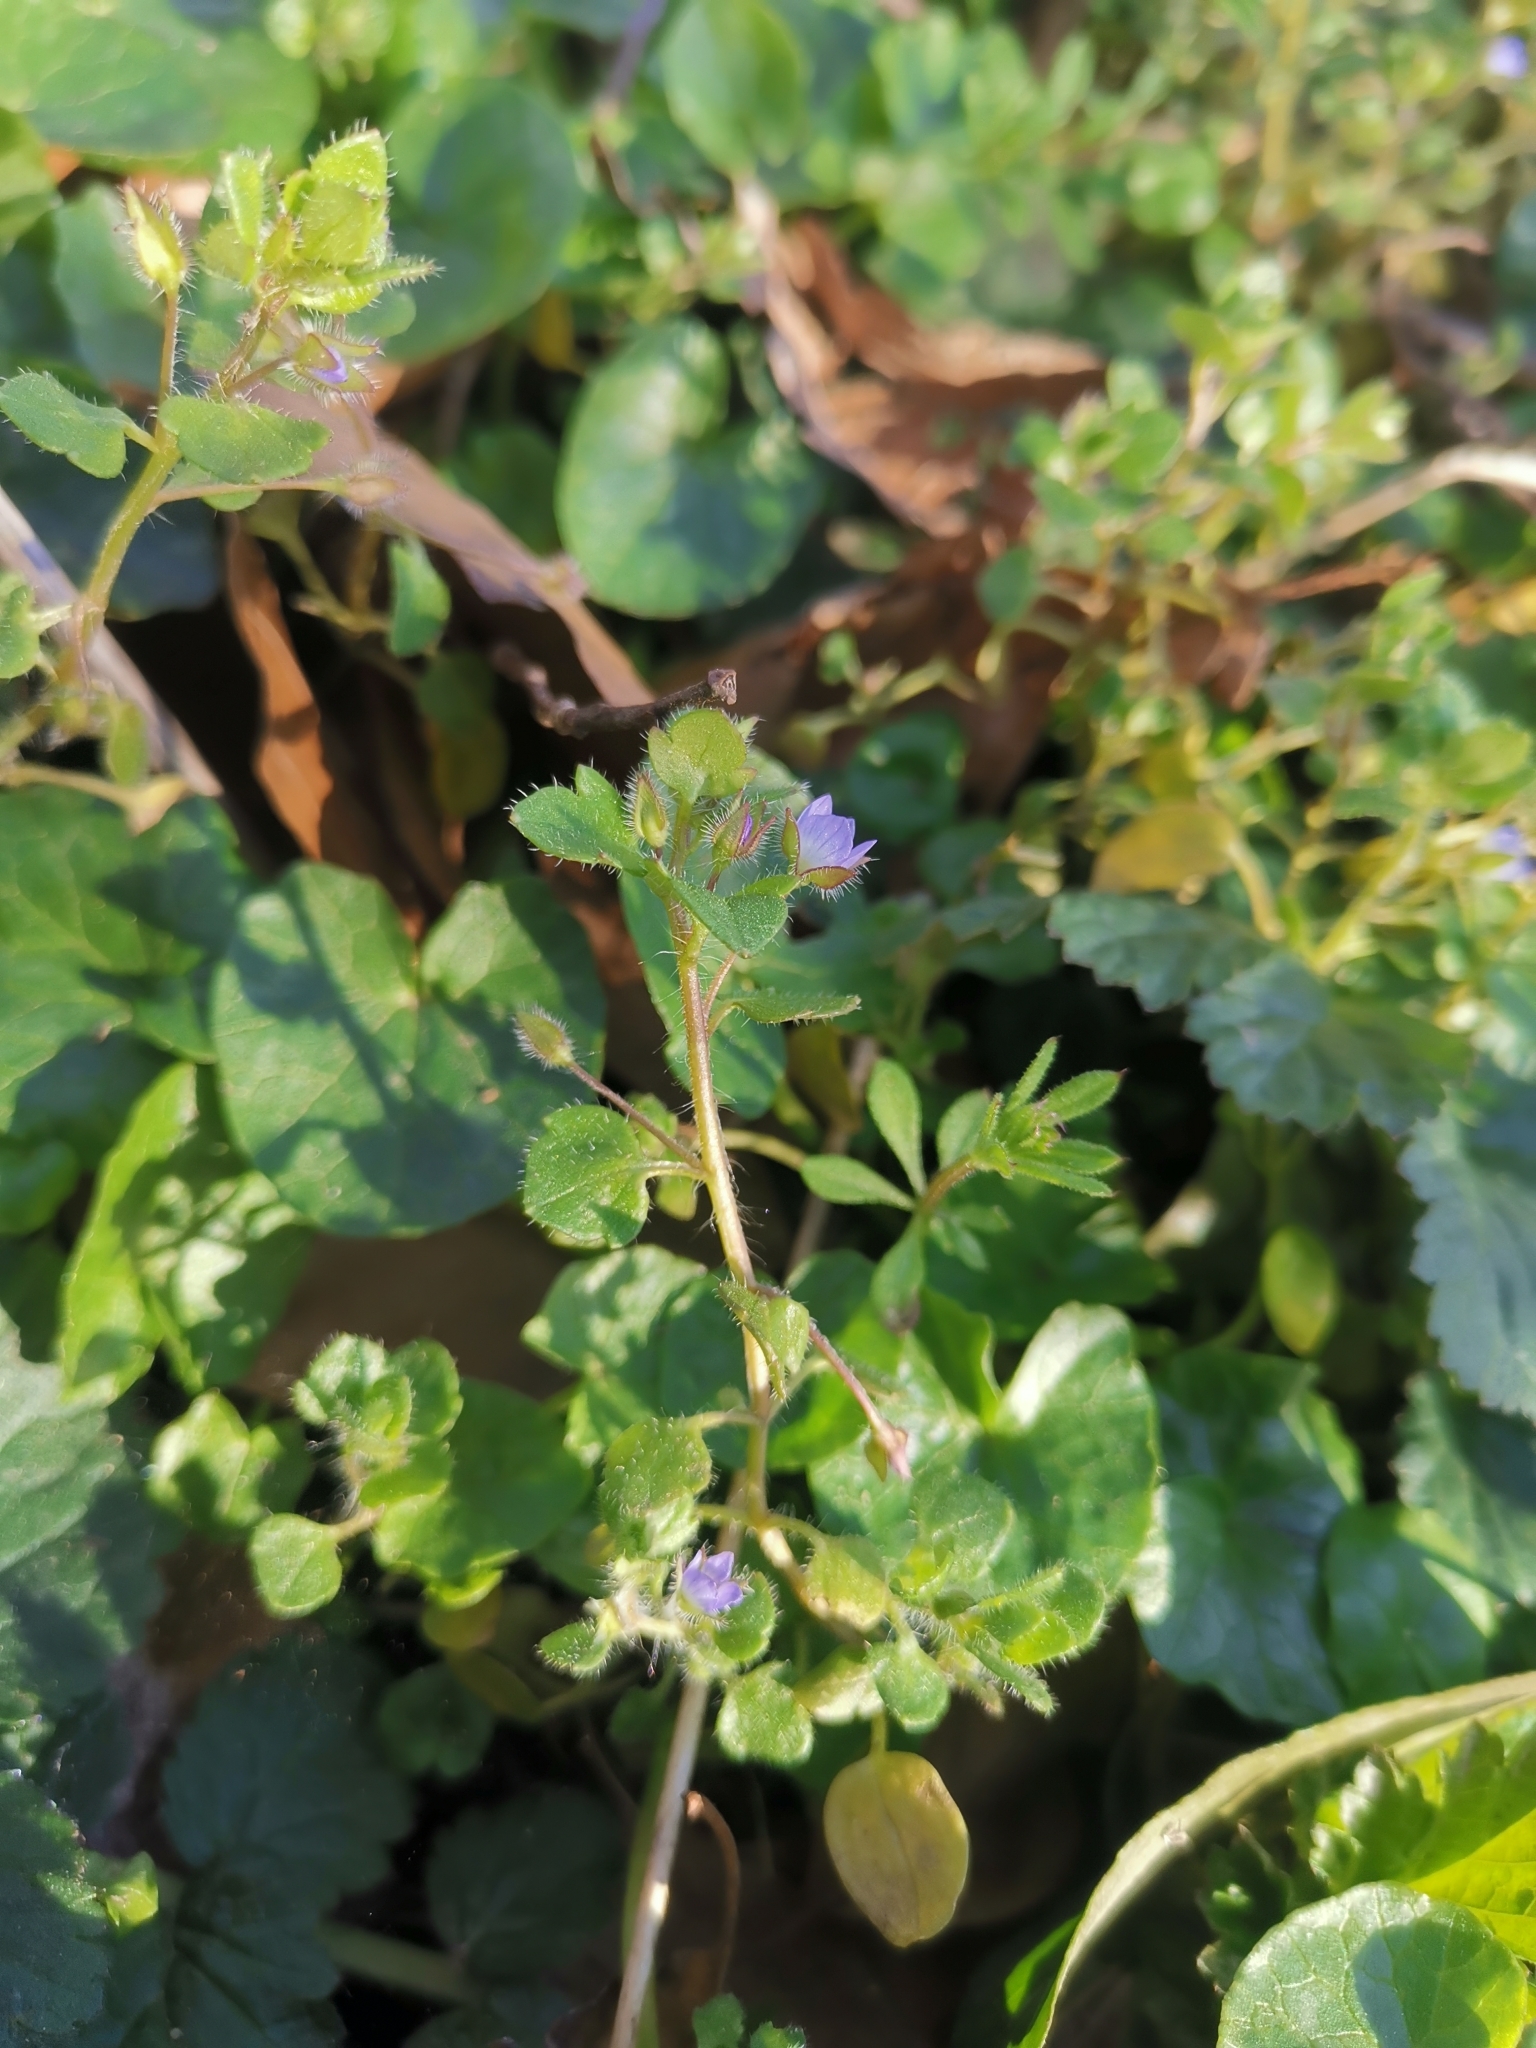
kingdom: Plantae
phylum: Tracheophyta
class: Magnoliopsida
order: Lamiales
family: Plantaginaceae
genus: Veronica
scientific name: Veronica hederifolia
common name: Ivy-leaved speedwell
